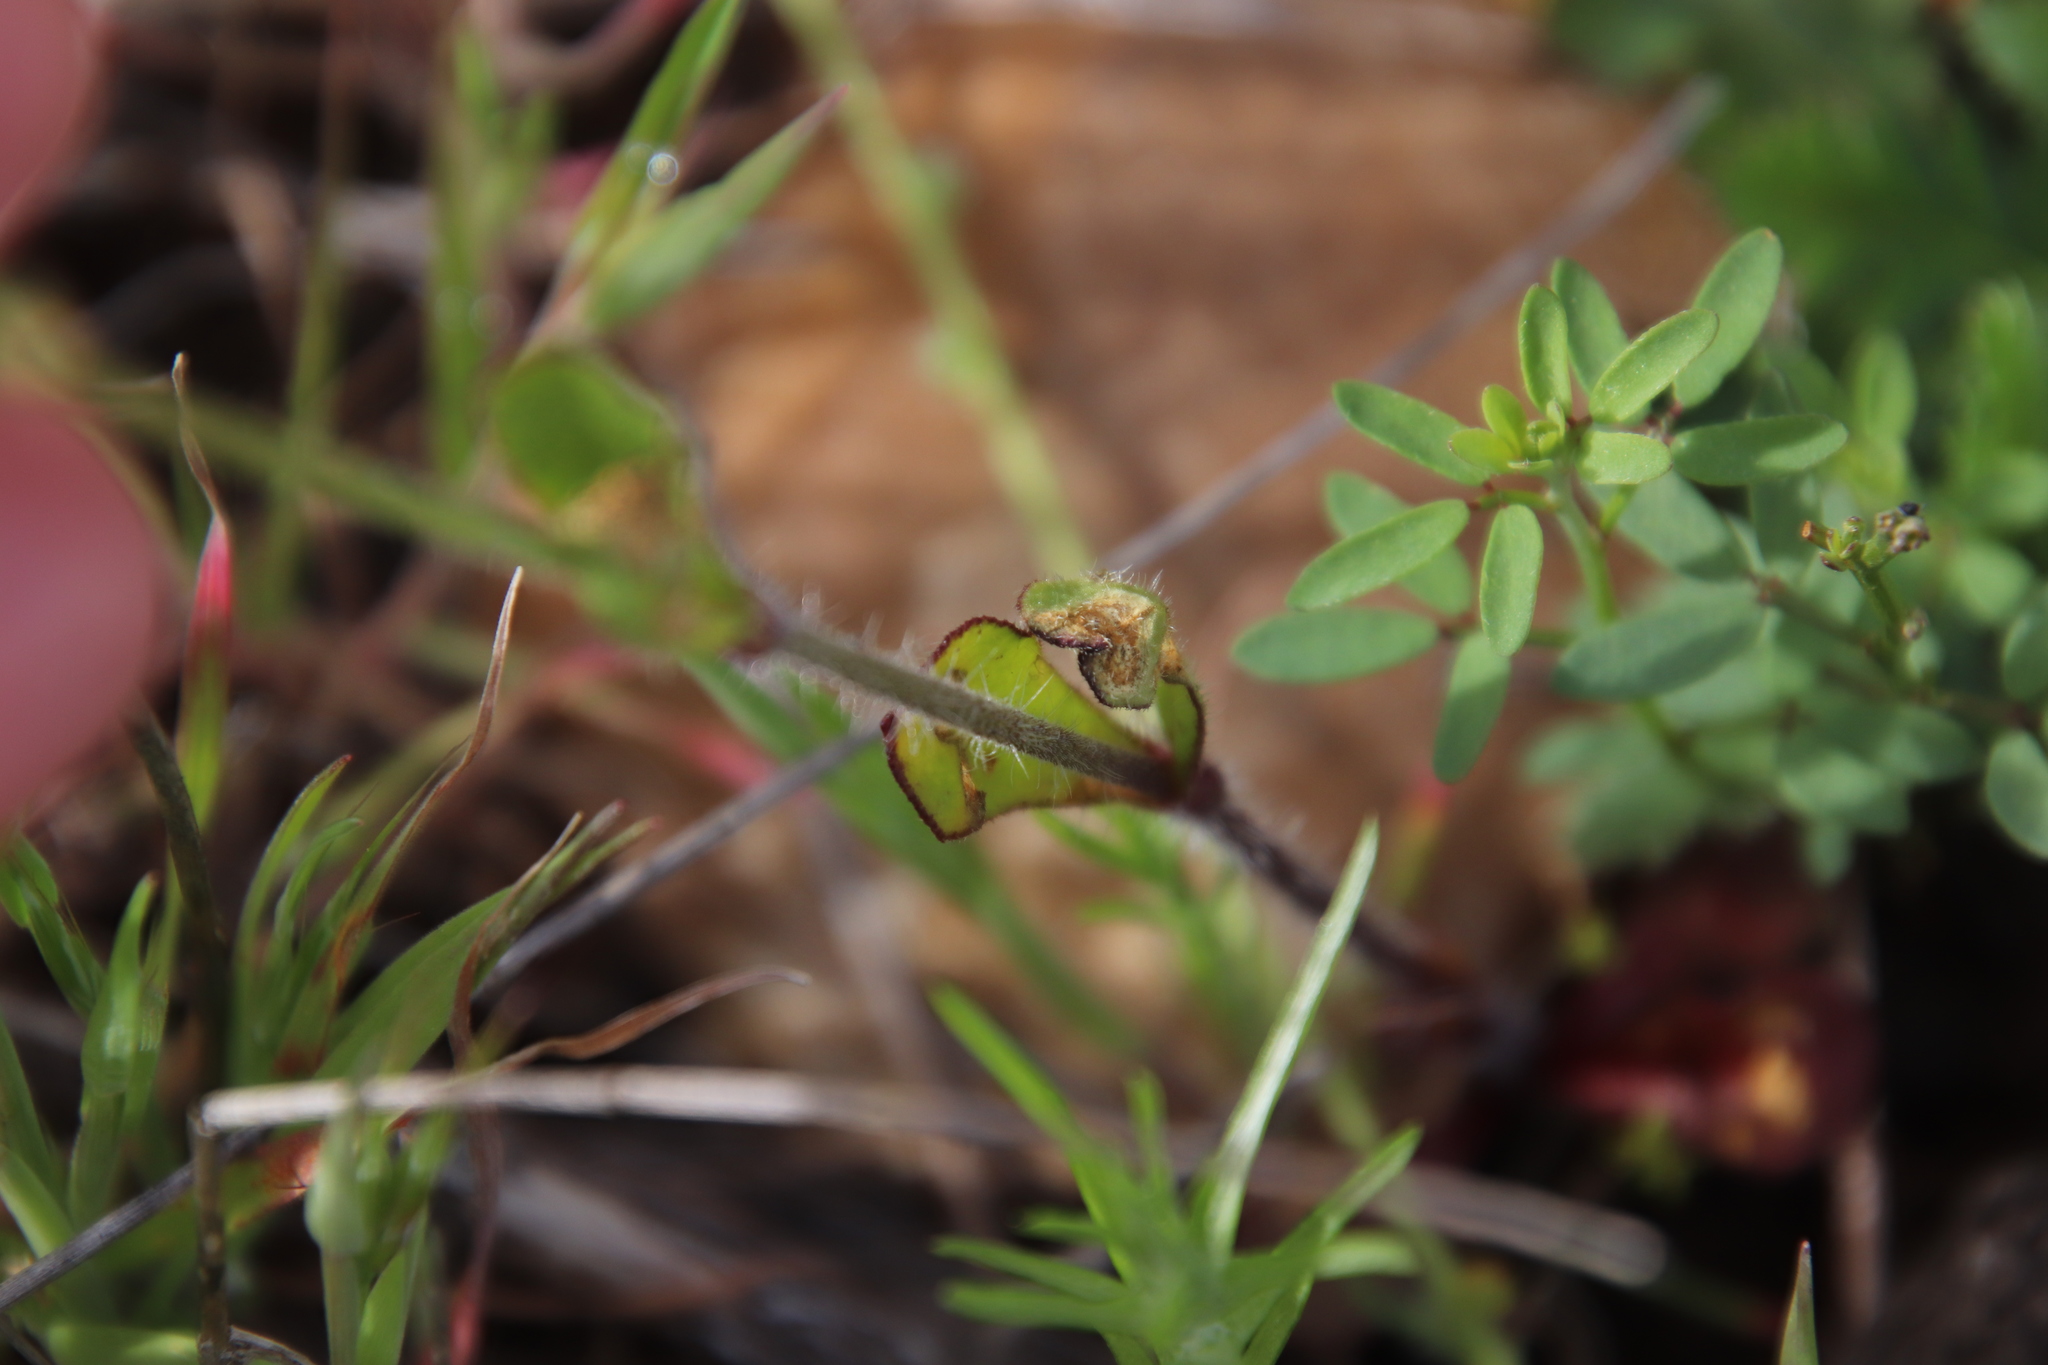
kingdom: Plantae
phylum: Tracheophyta
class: Magnoliopsida
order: Caryophyllales
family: Caryophyllaceae
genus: Silene
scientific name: Silene gallica
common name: Small-flowered catchfly
